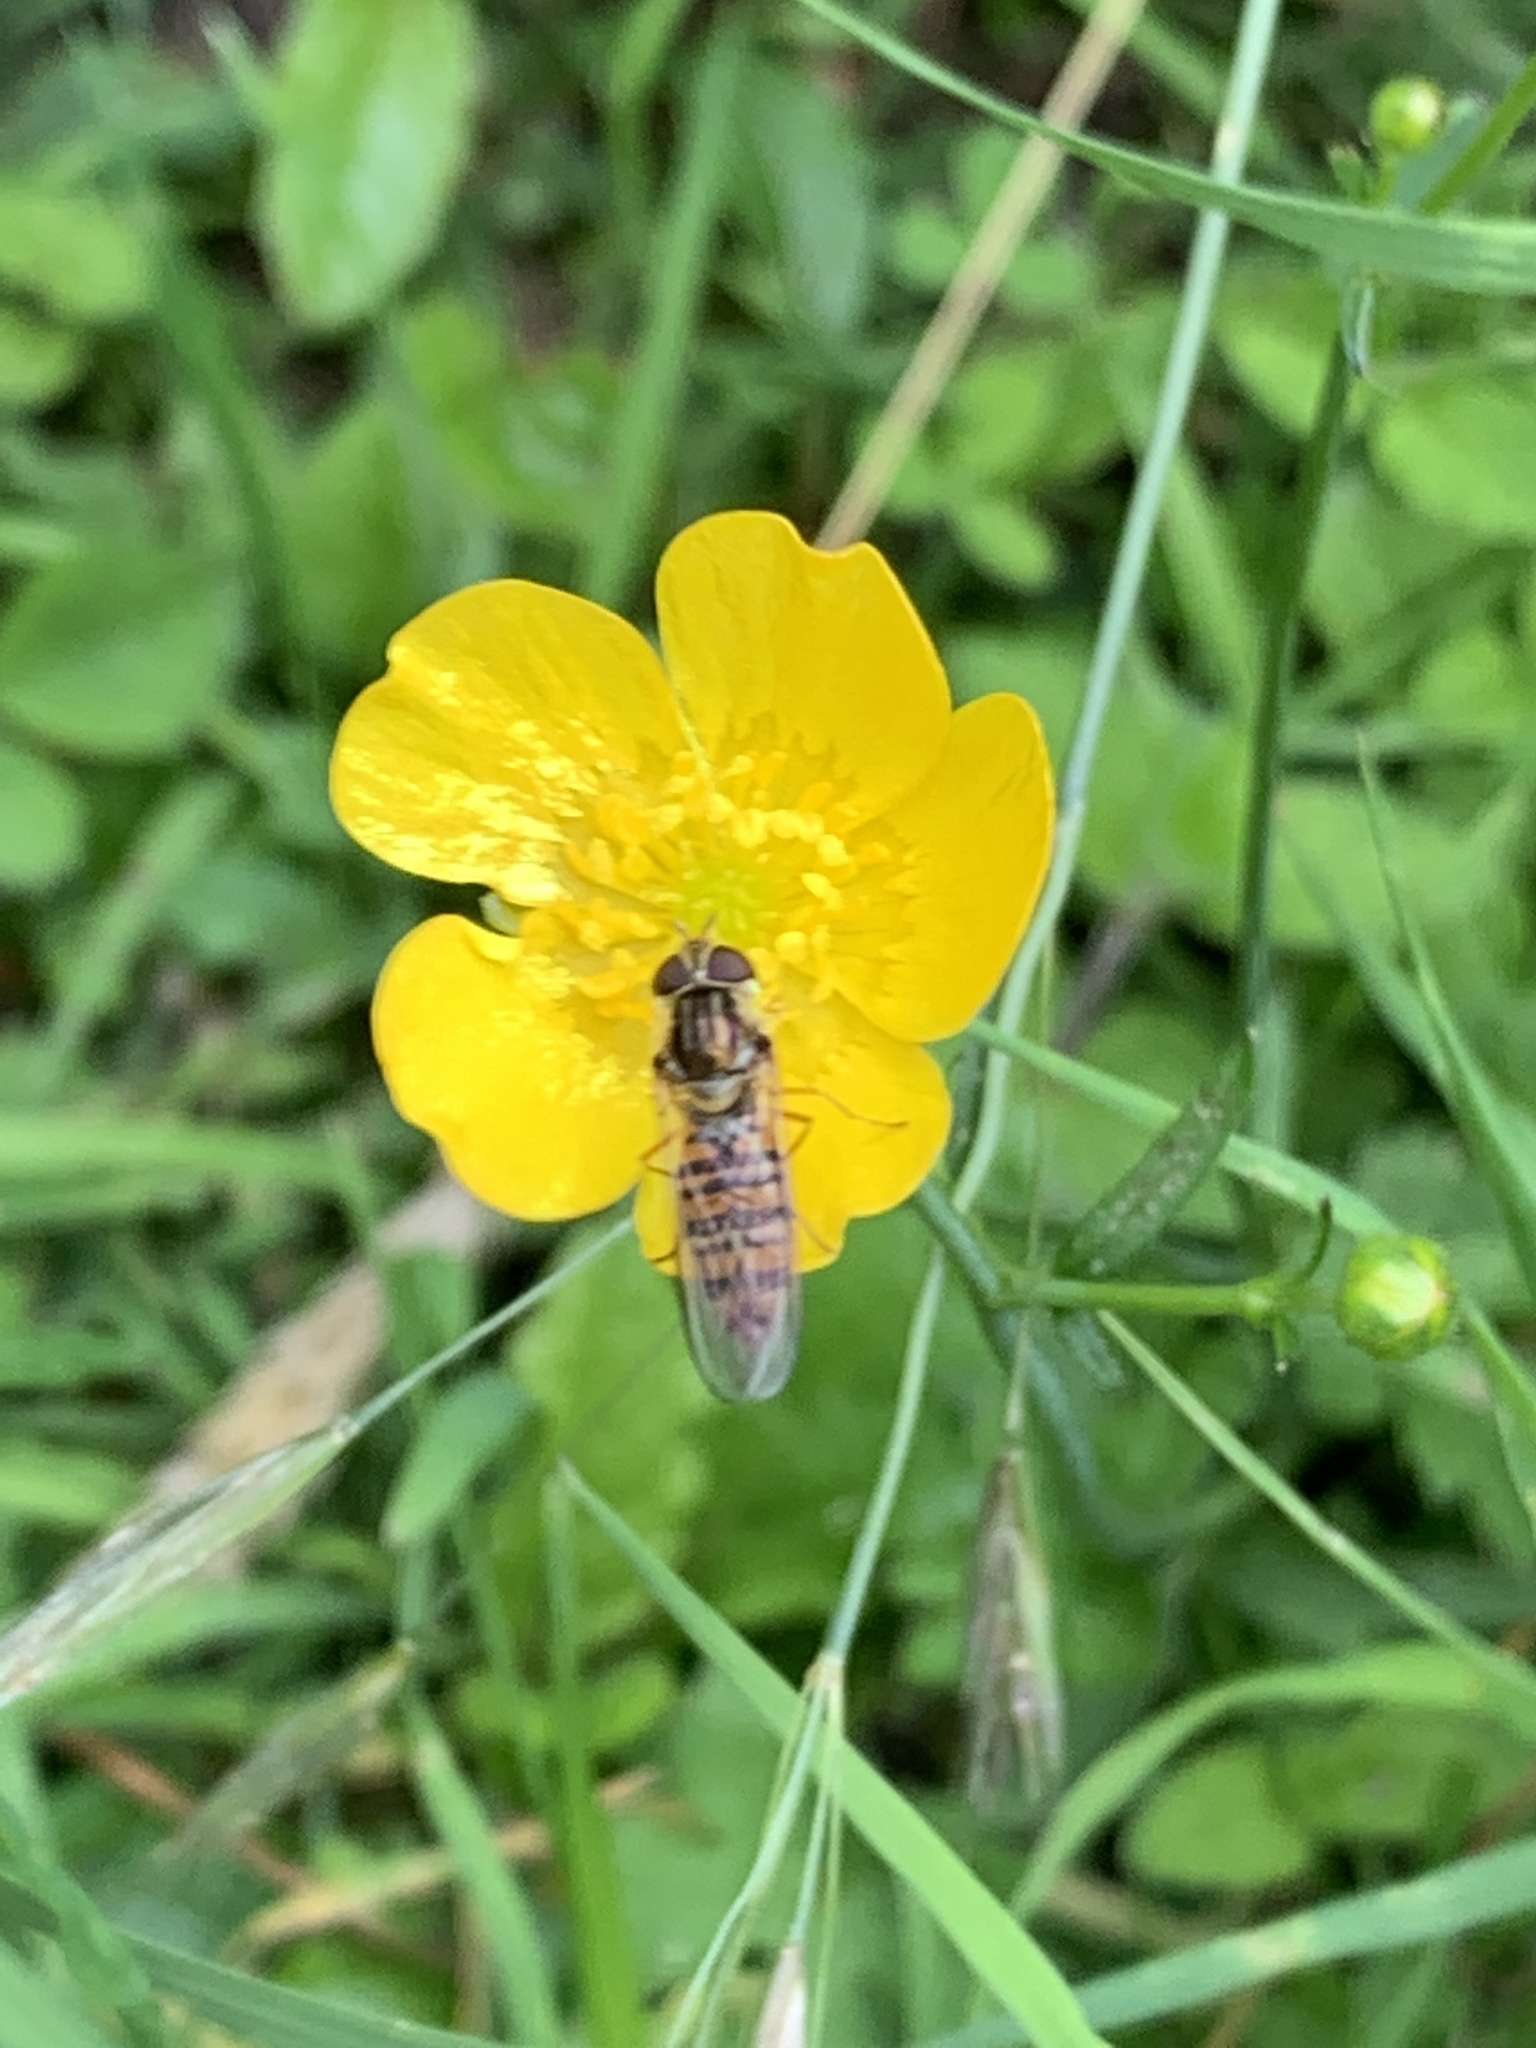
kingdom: Animalia
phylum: Arthropoda
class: Insecta
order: Diptera
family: Syrphidae
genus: Episyrphus
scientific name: Episyrphus balteatus
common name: Marmalade hoverfly
